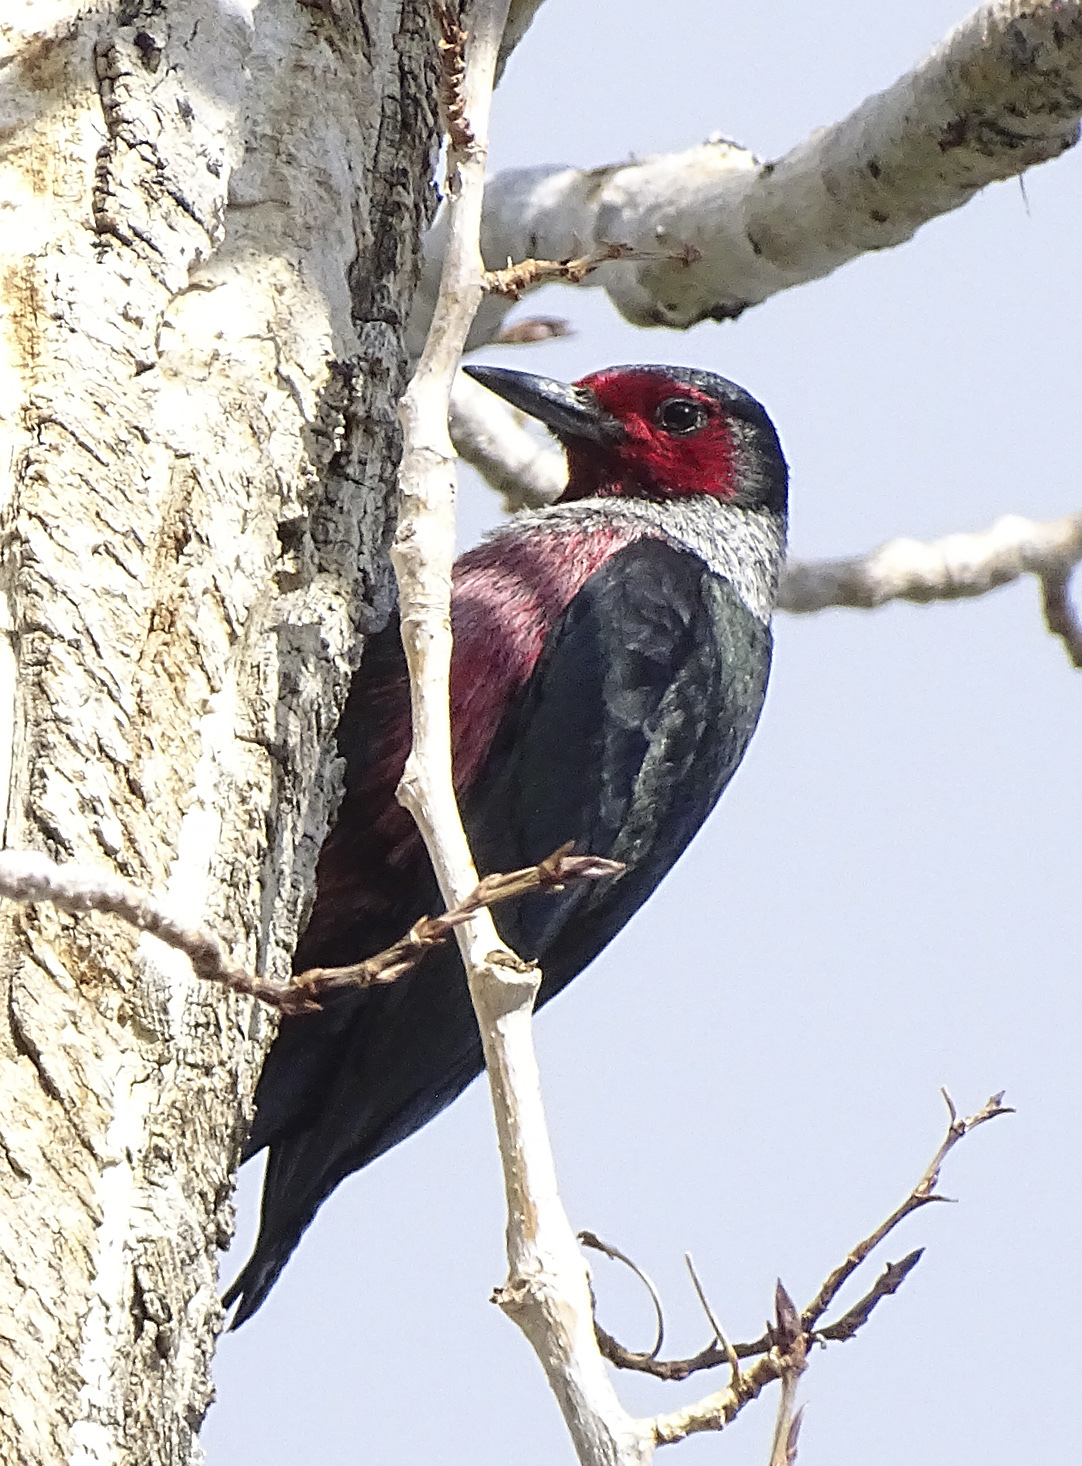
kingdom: Animalia
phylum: Chordata
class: Aves
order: Piciformes
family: Picidae
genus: Melanerpes
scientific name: Melanerpes lewis
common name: Lewis's woodpecker
